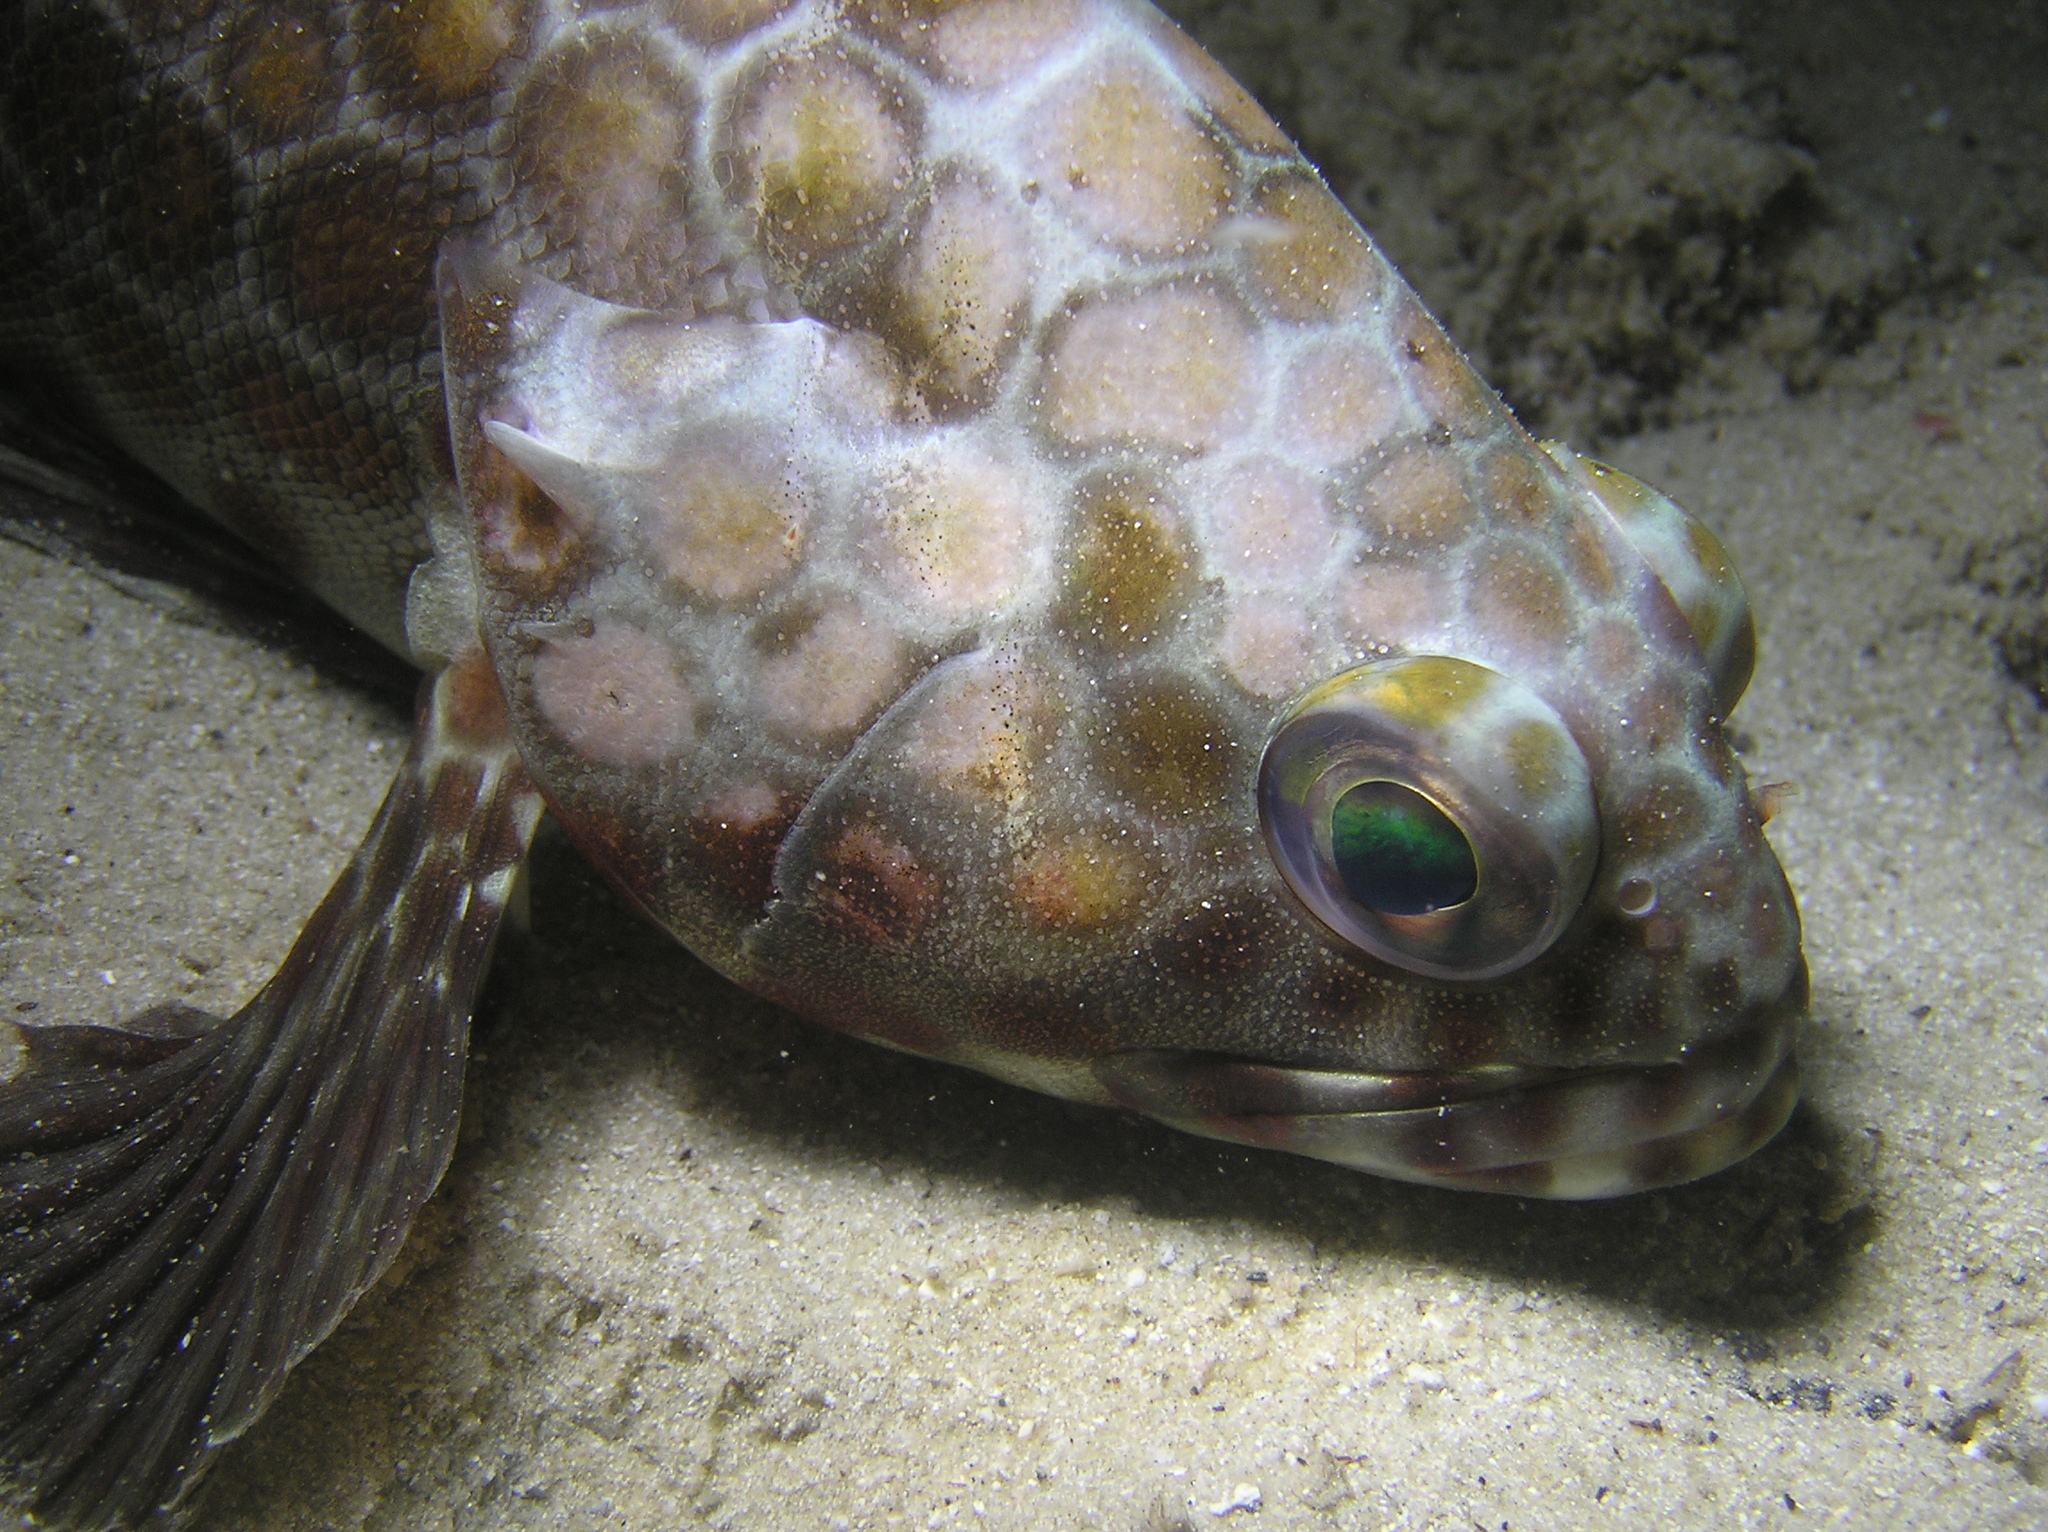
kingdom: Animalia
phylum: Chordata
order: Perciformes
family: Serranidae
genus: Epinephelus
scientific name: Epinephelus quoyanus
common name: Longfin grouper
